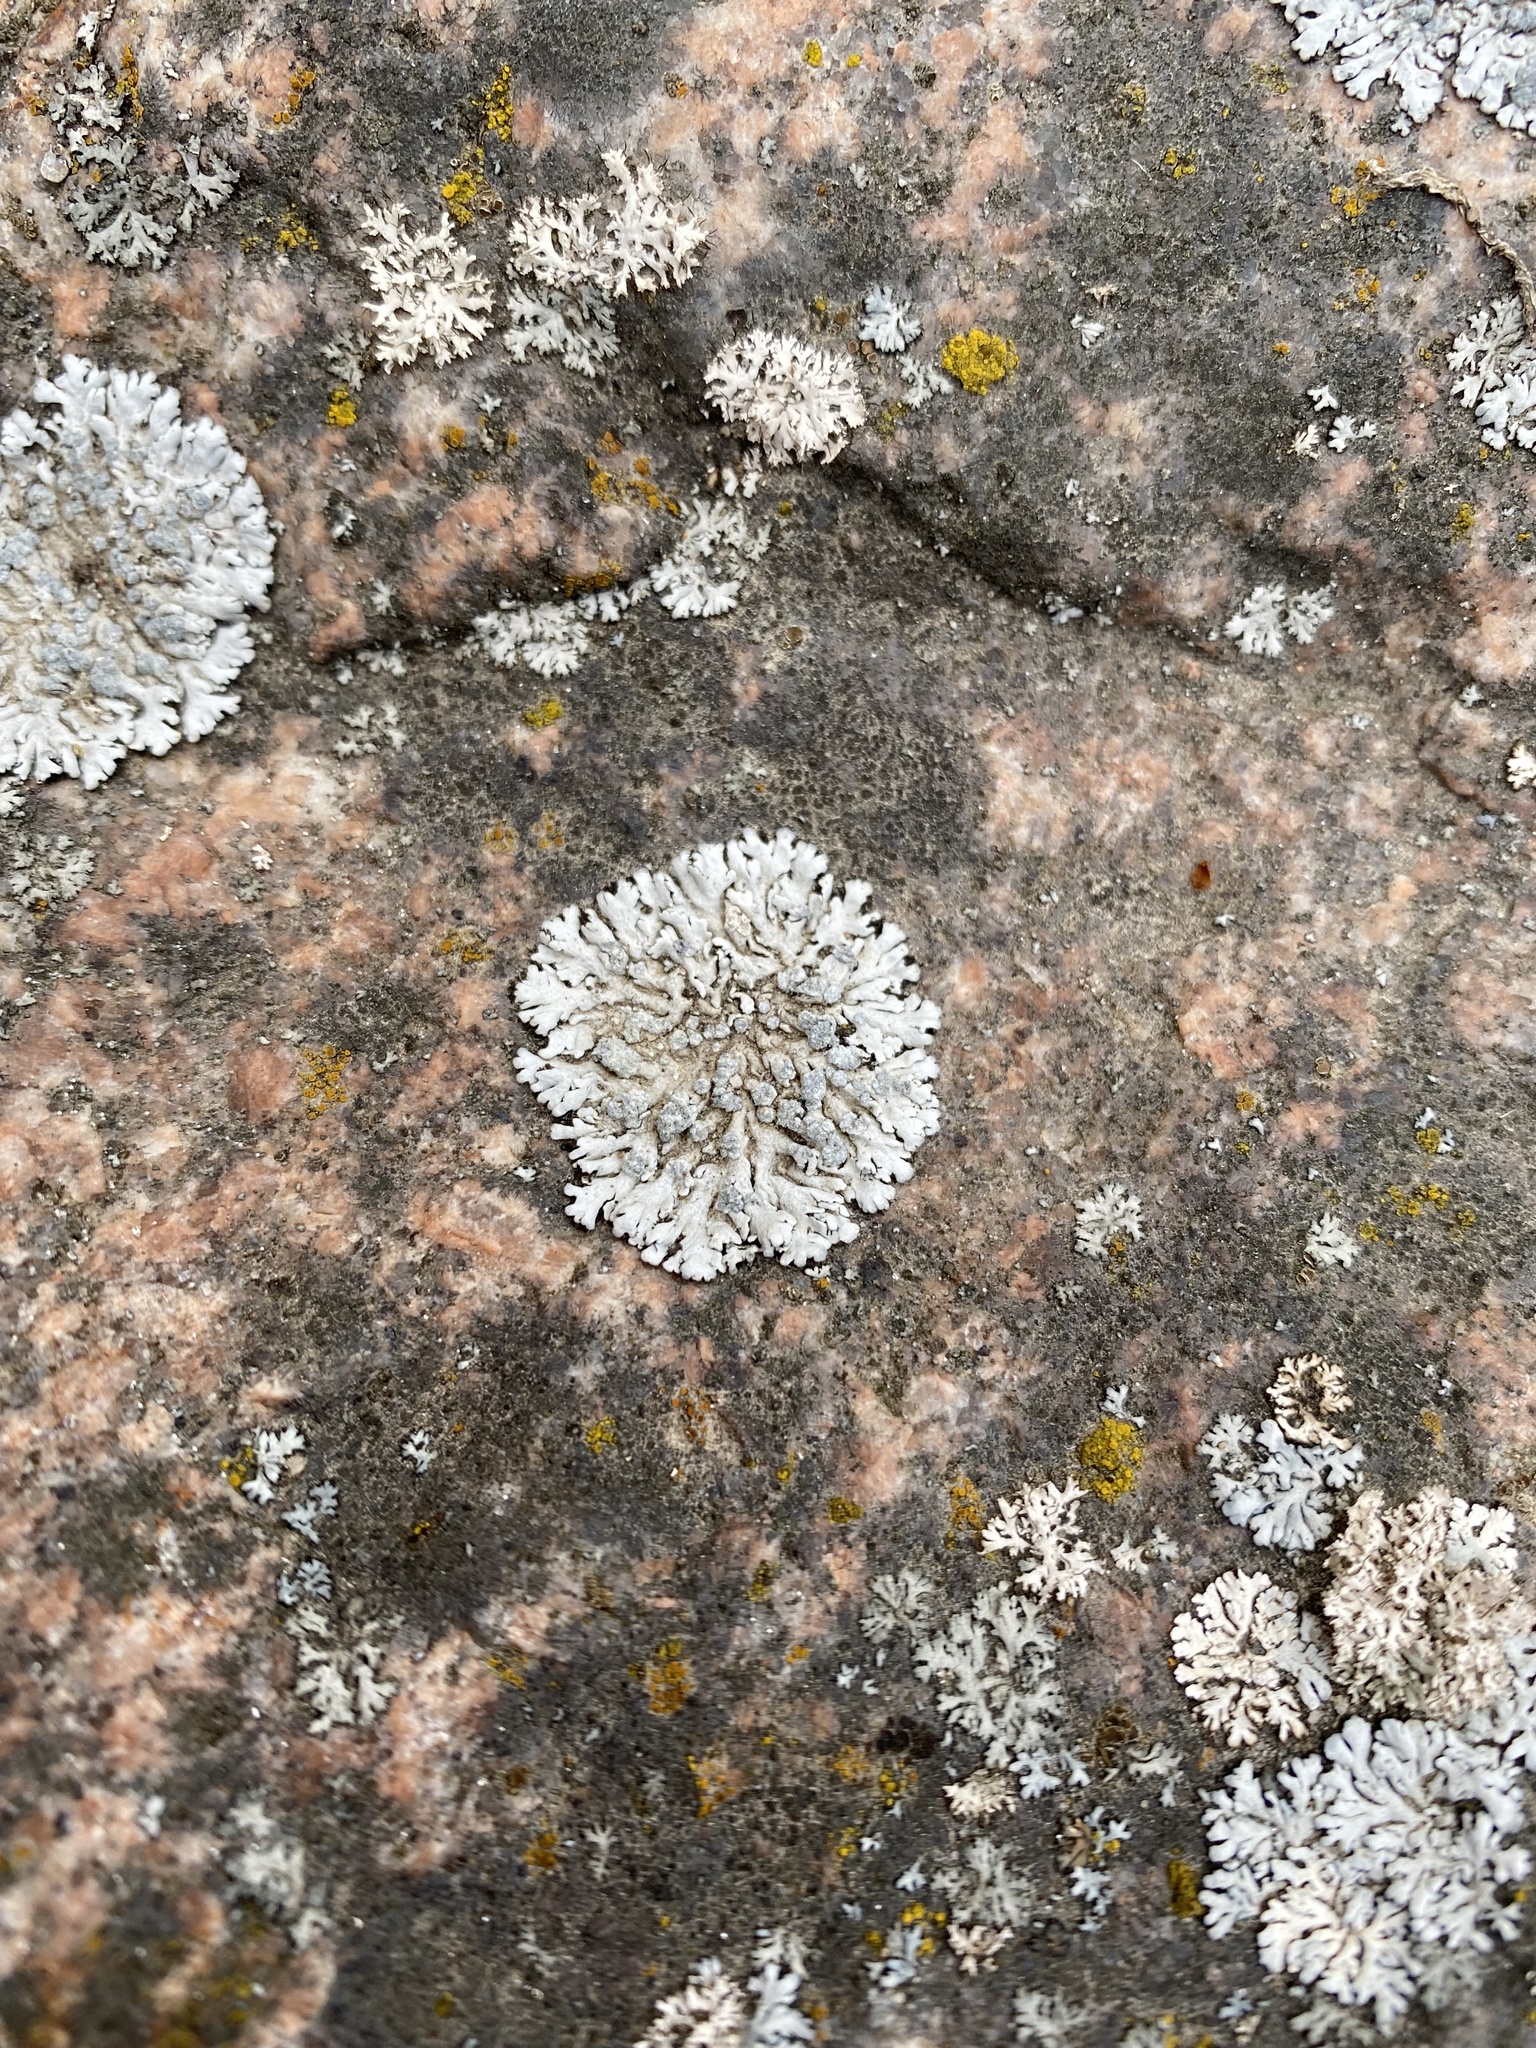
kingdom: Fungi
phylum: Ascomycota
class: Lecanoromycetes
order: Caliciales
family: Physciaceae
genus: Physcia
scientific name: Physcia caesia
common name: Blue-gray rosette lichen
